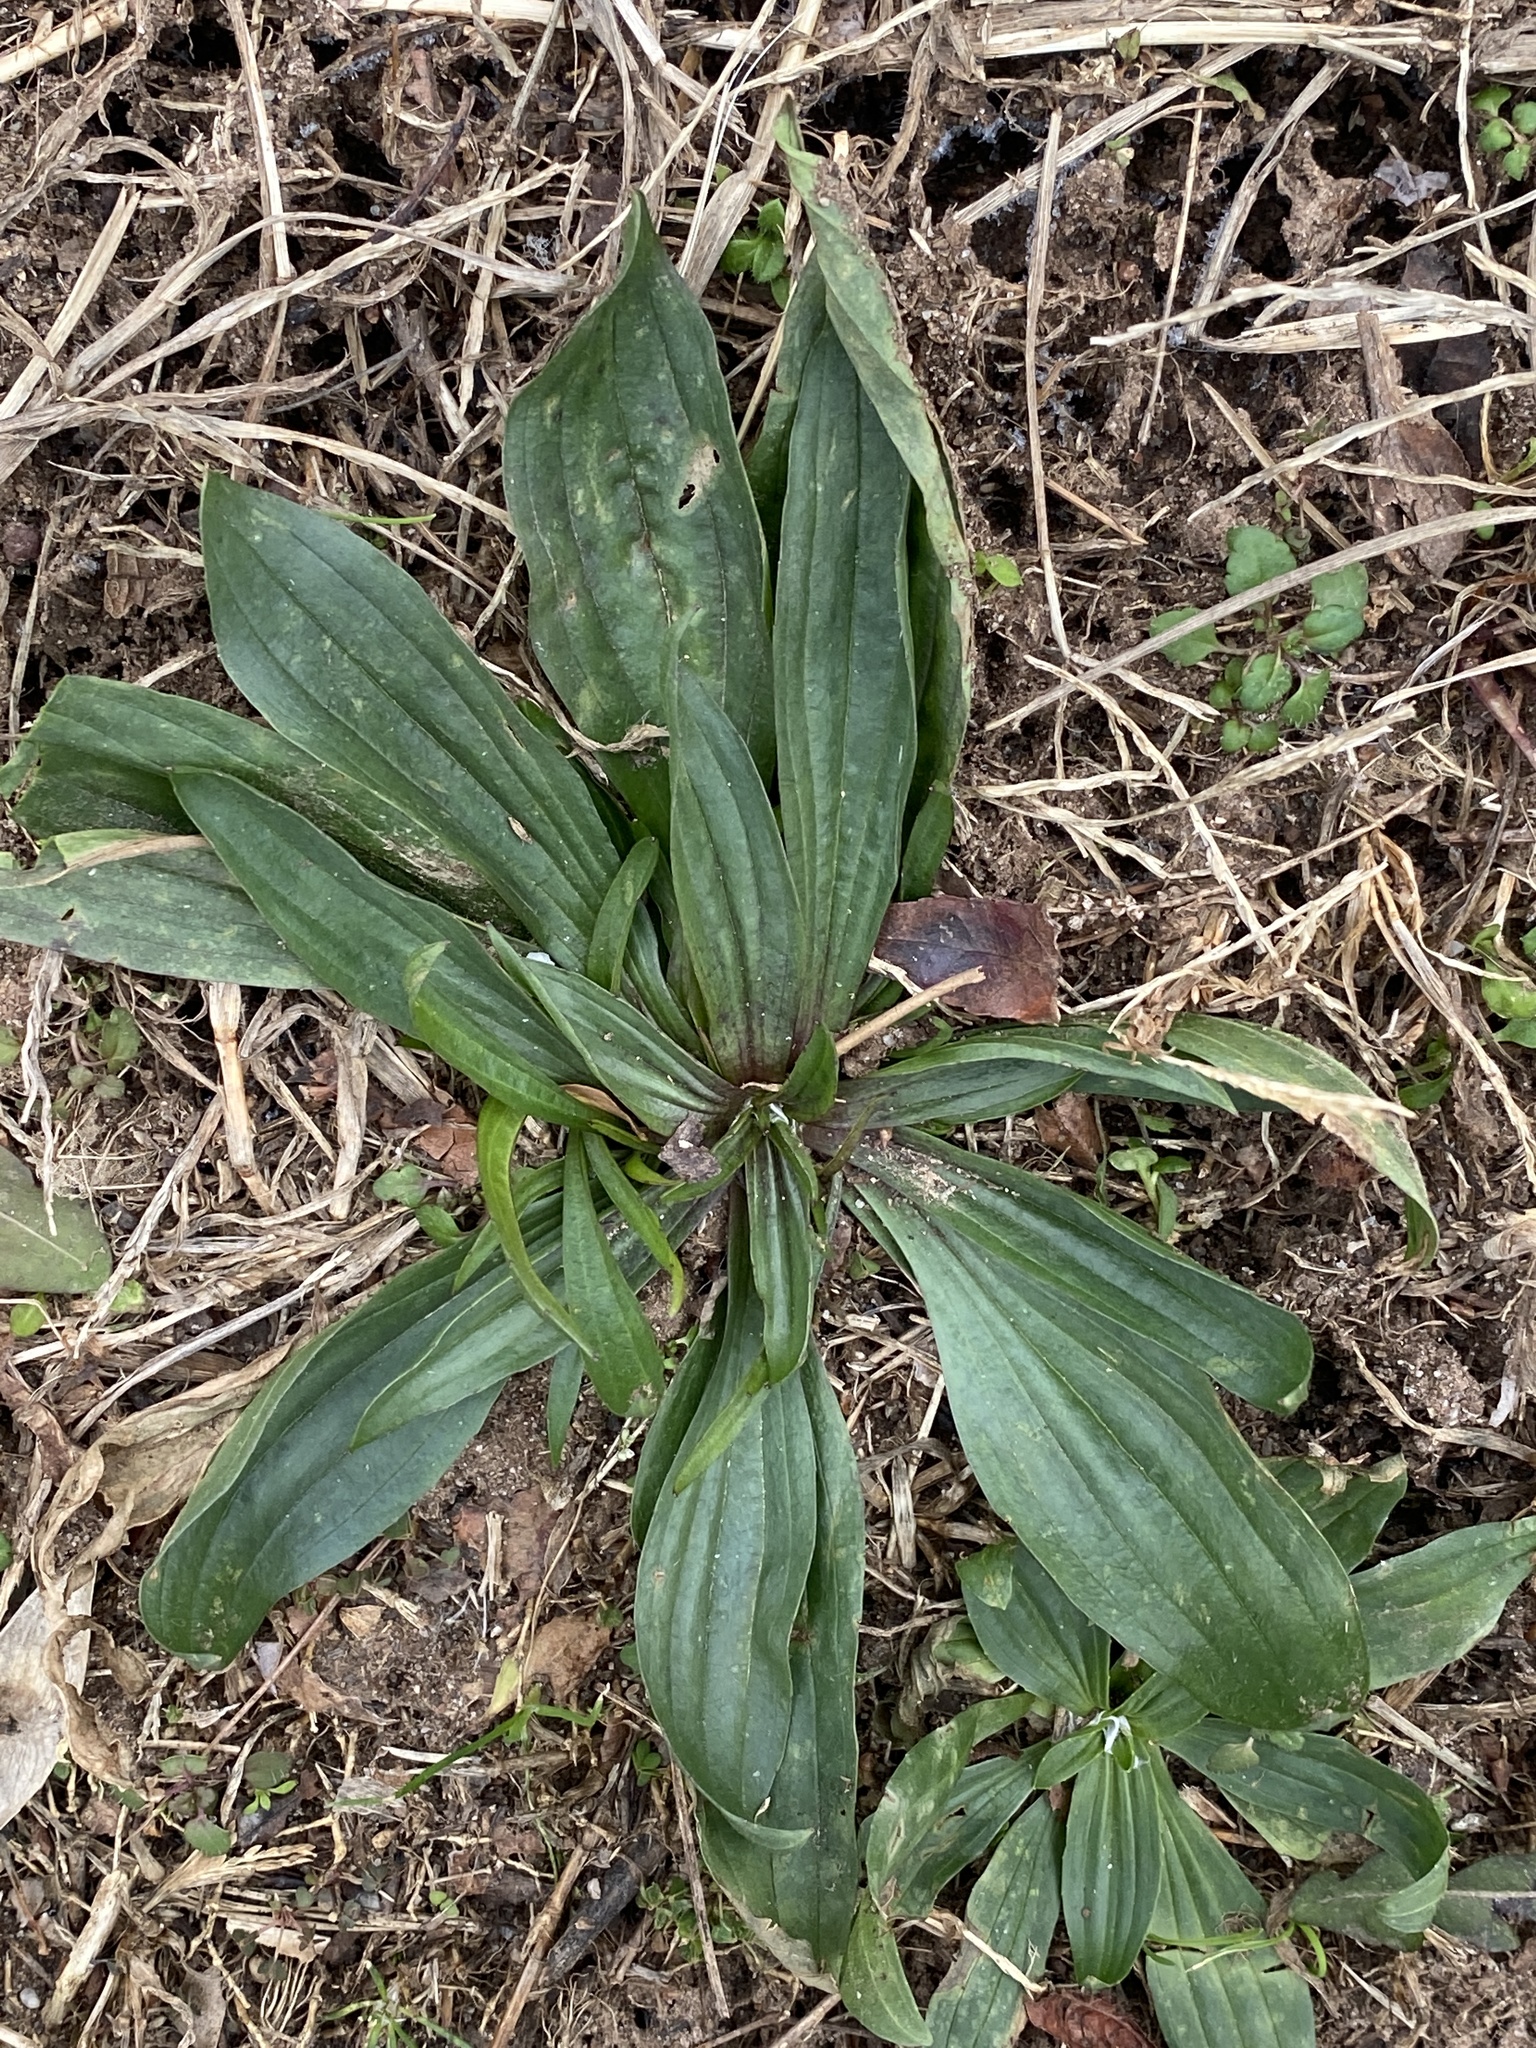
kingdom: Plantae
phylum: Tracheophyta
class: Magnoliopsida
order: Lamiales
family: Plantaginaceae
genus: Plantago
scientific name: Plantago lanceolata
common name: Ribwort plantain
